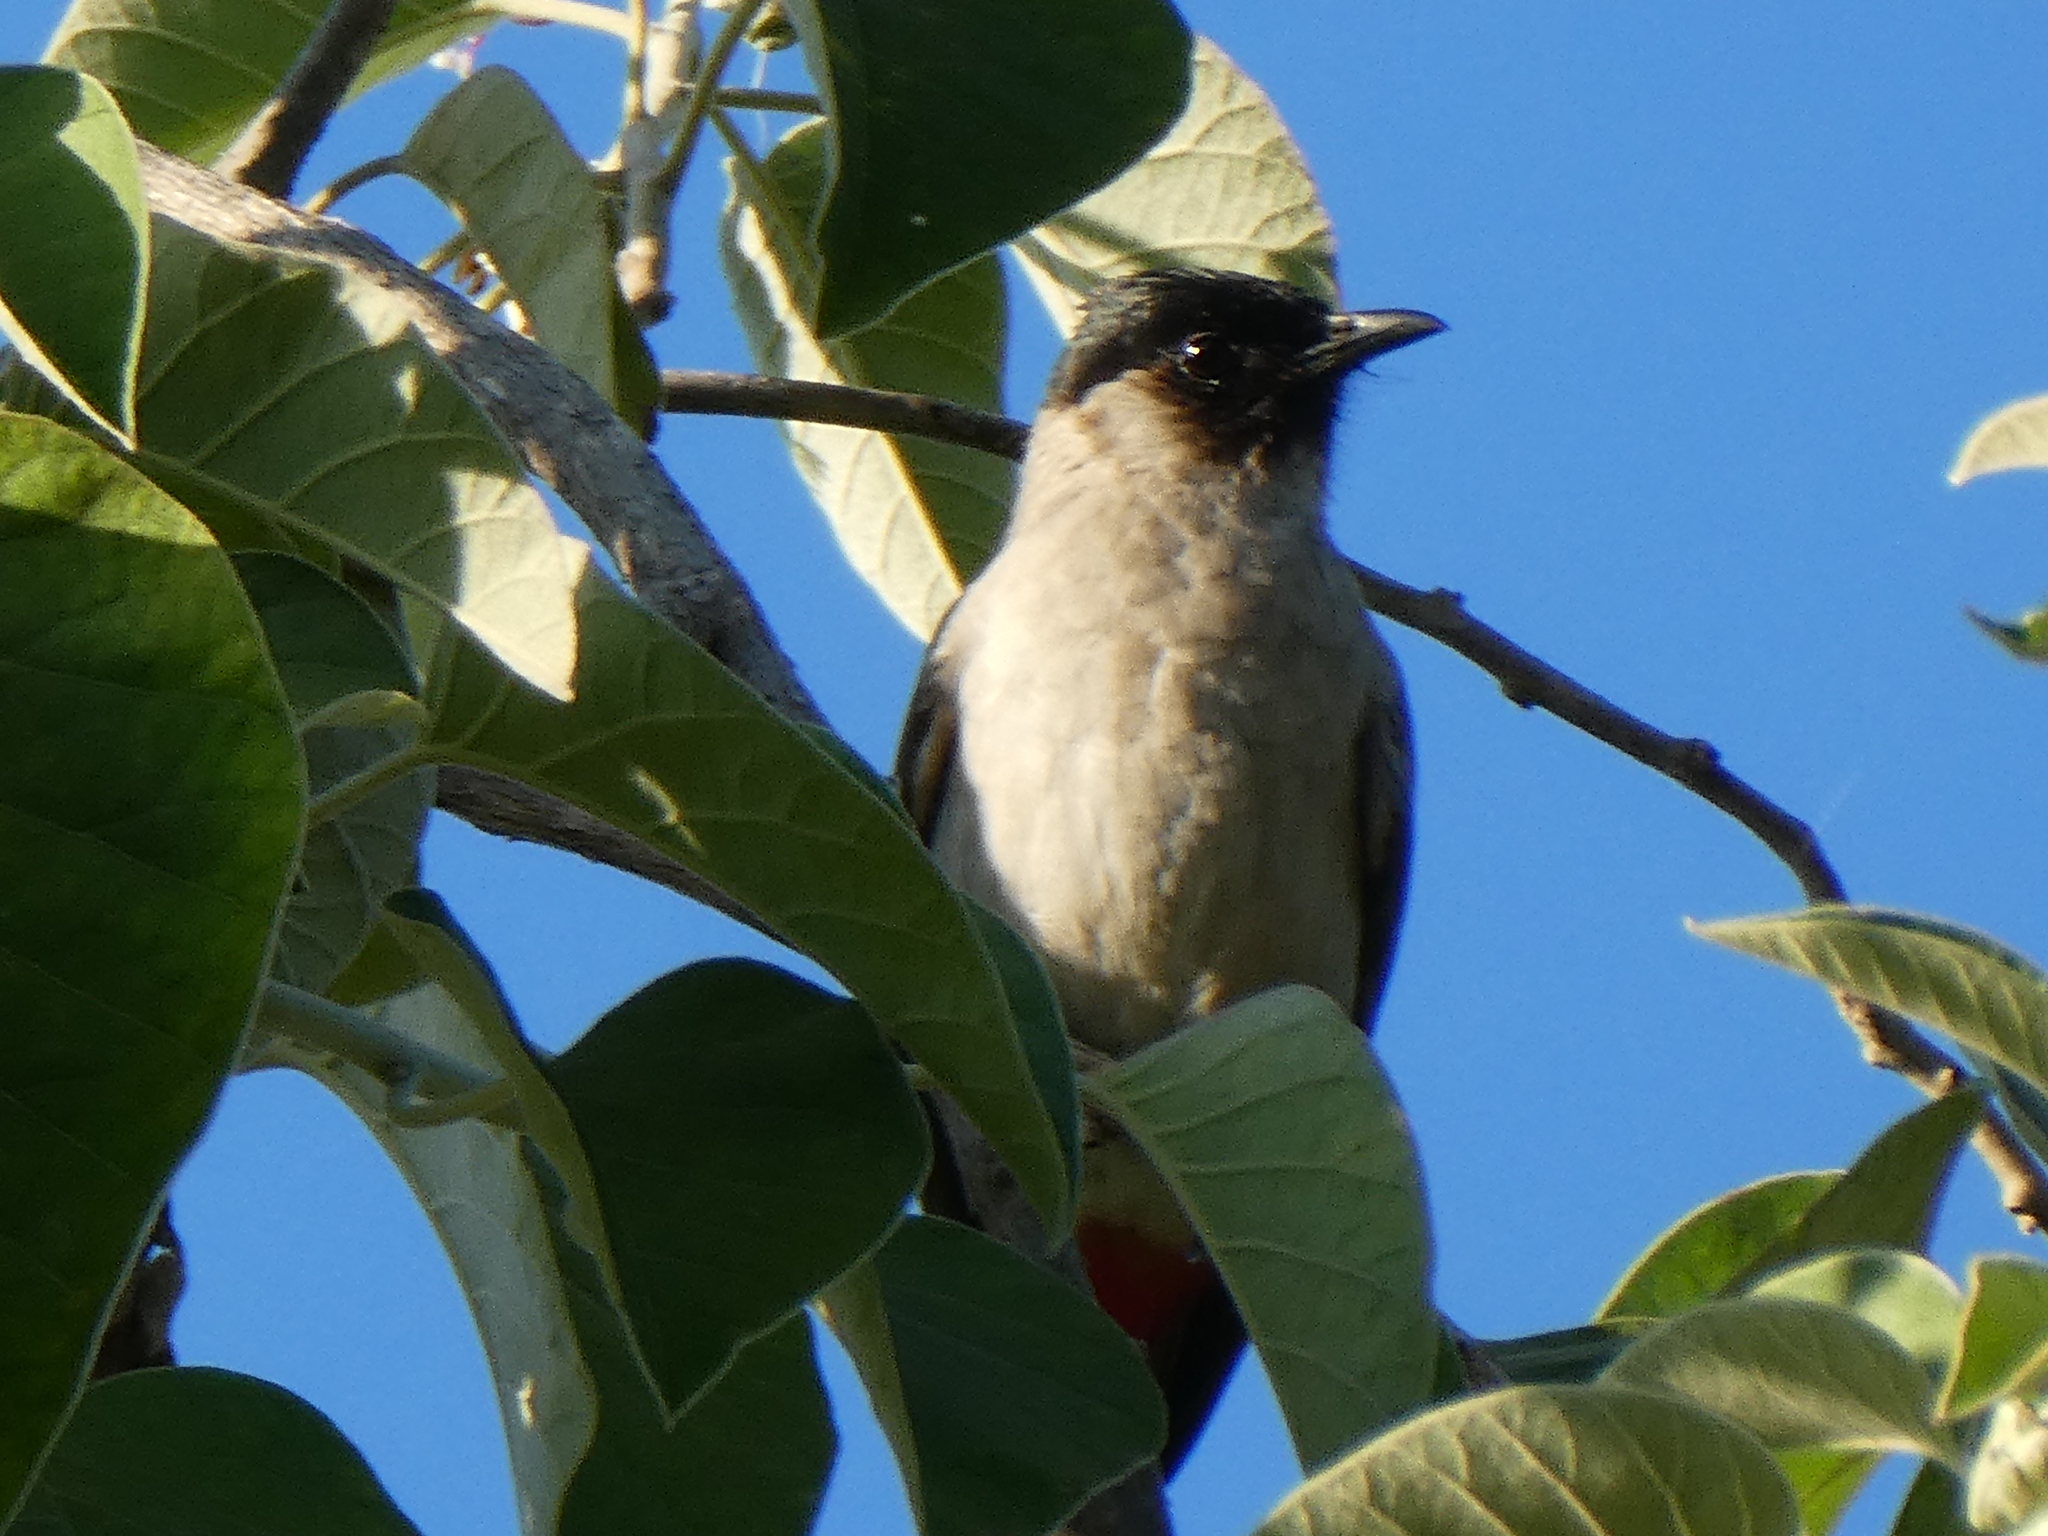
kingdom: Animalia
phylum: Chordata
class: Aves
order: Passeriformes
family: Pycnonotidae
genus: Pycnonotus
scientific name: Pycnonotus aurigaster
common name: Sooty-headed bulbul
